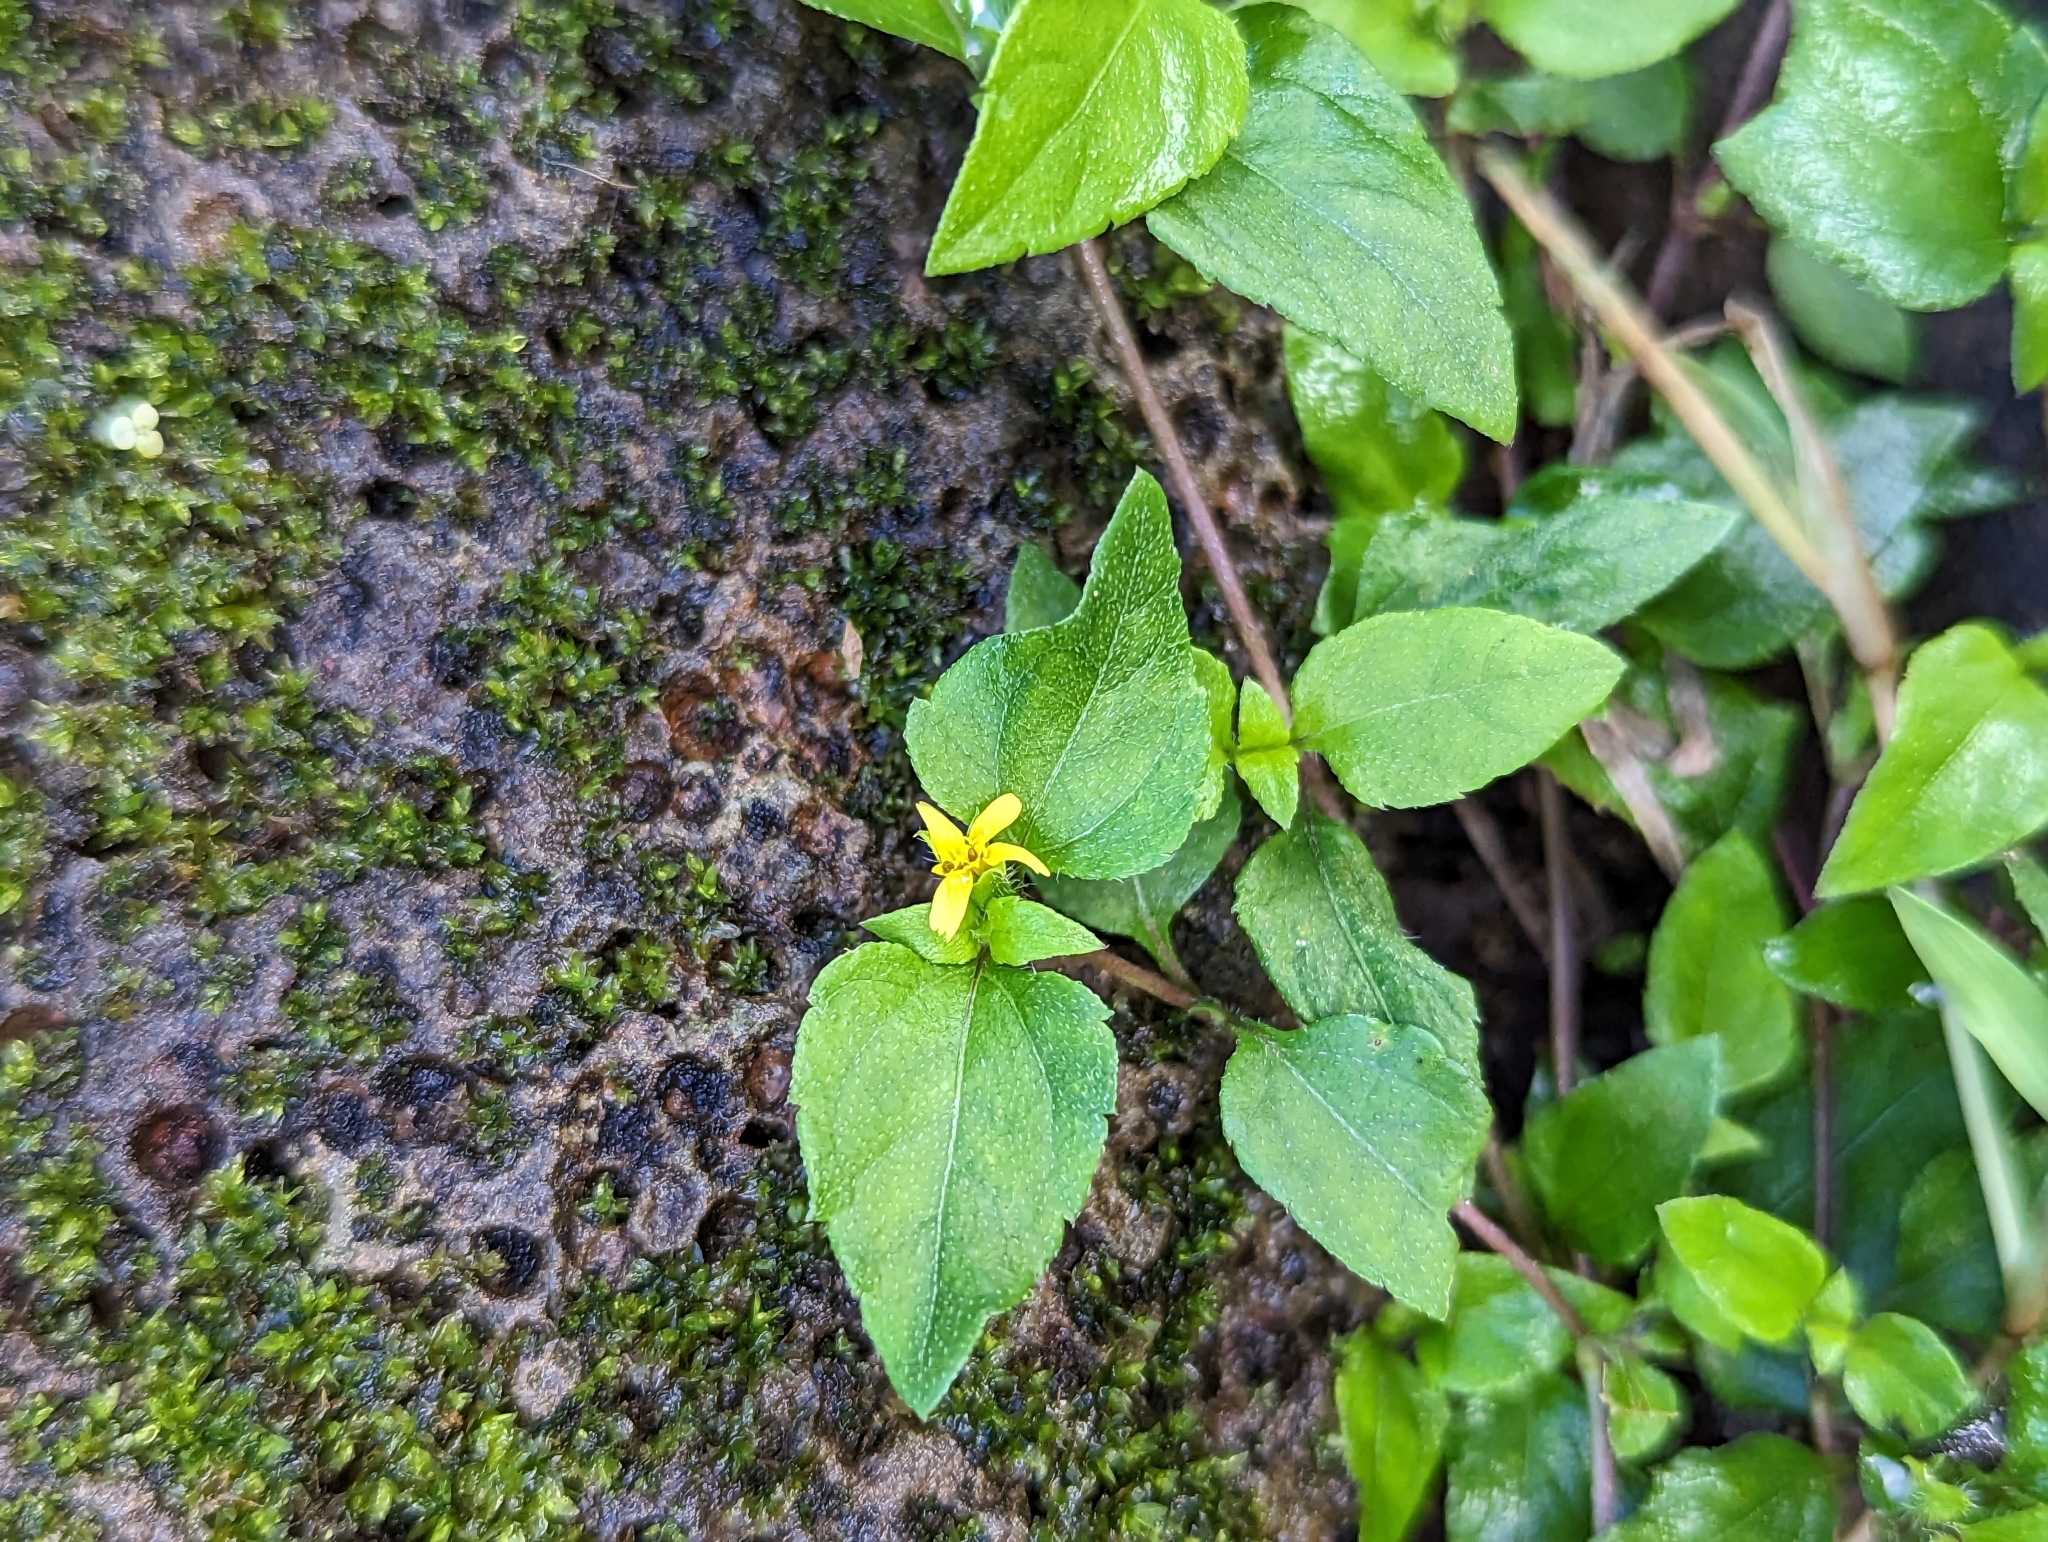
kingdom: Plantae
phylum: Tracheophyta
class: Magnoliopsida
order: Asterales
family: Asteraceae
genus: Calyptocarpus
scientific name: Calyptocarpus vialis
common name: Straggler daisy
